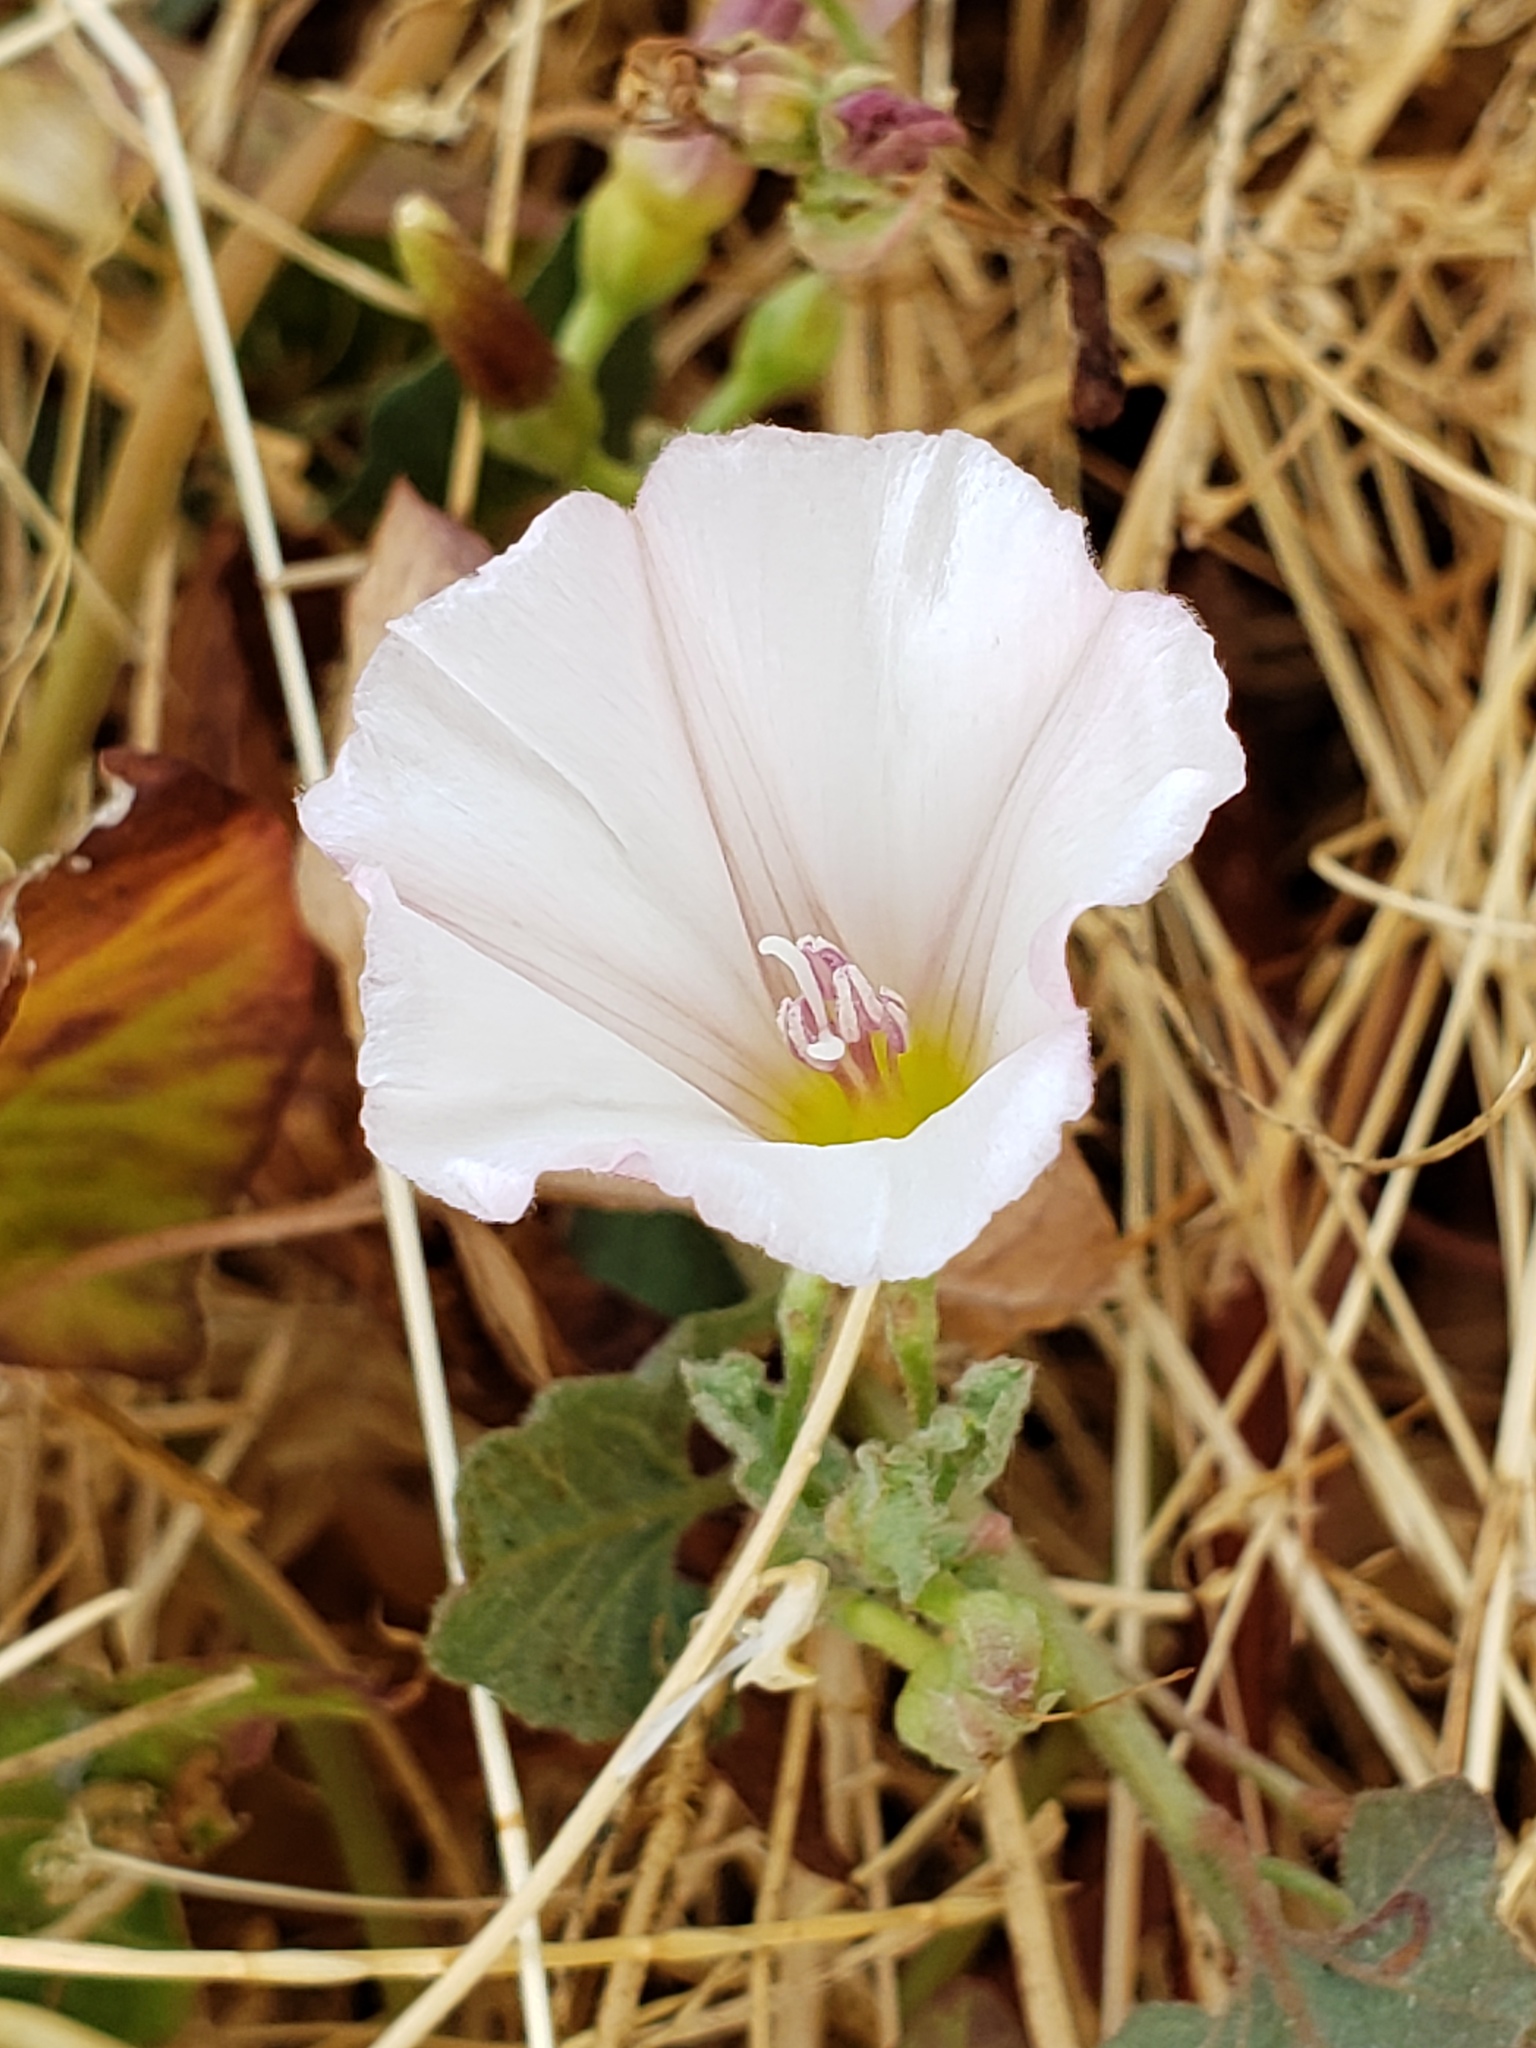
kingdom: Plantae
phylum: Tracheophyta
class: Magnoliopsida
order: Solanales
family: Convolvulaceae
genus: Convolvulus
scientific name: Convolvulus arvensis
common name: Field bindweed
